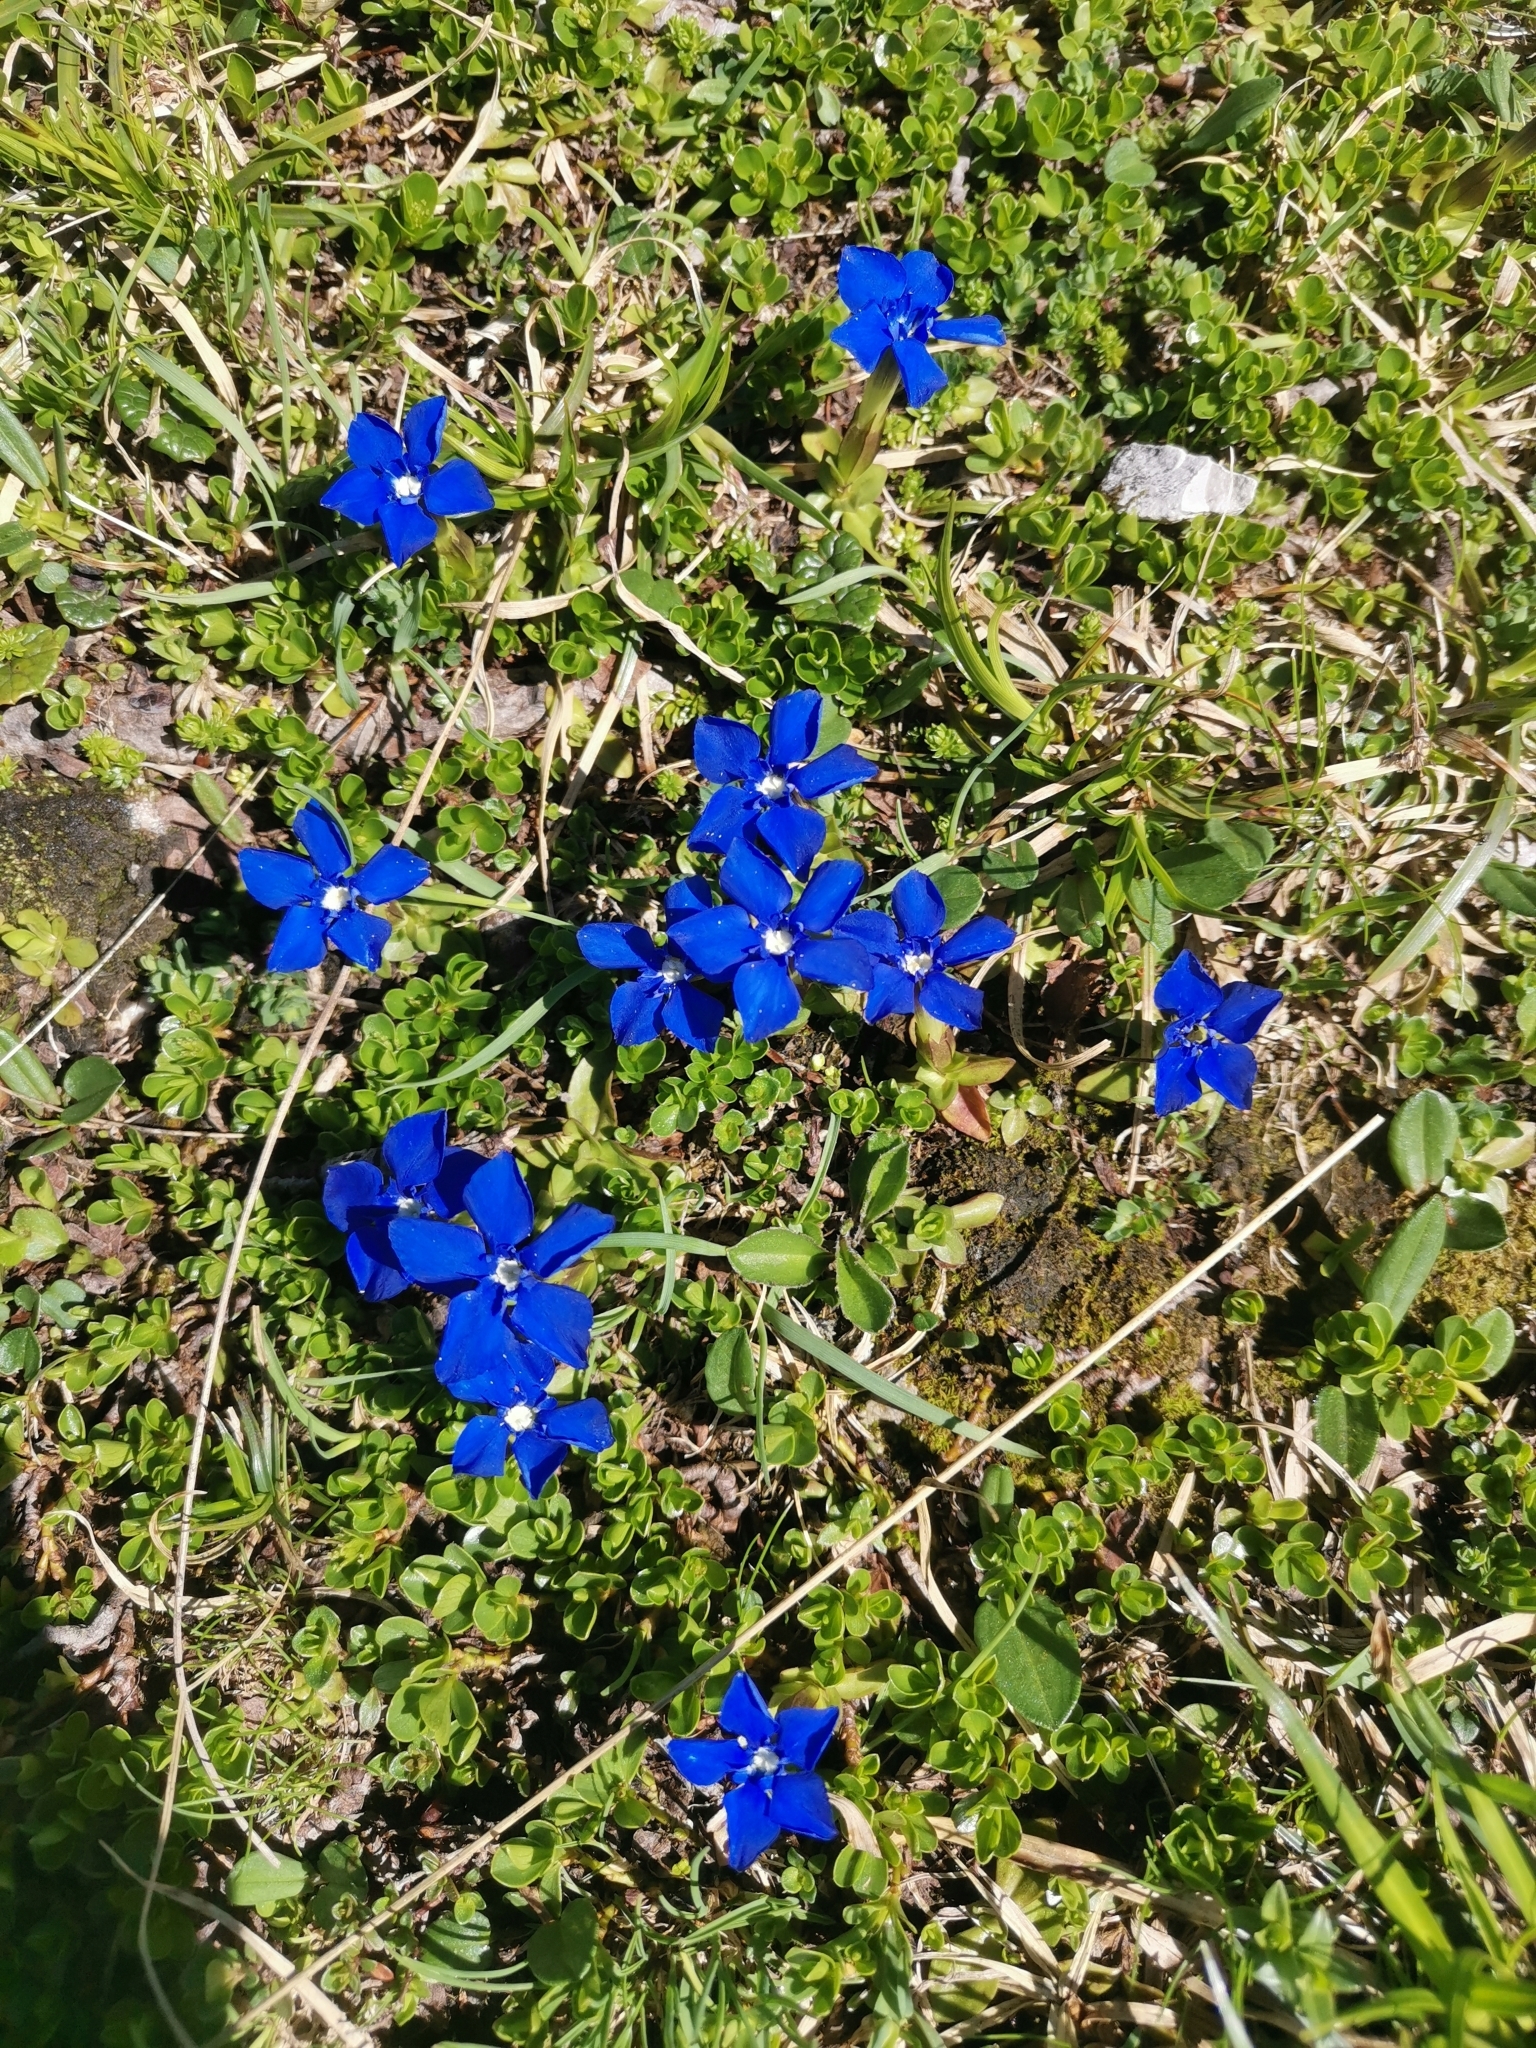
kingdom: Plantae
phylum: Tracheophyta
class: Magnoliopsida
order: Malpighiales
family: Salicaceae
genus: Salix
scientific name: Salix serpillifolia
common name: Thyme-leaf willow
